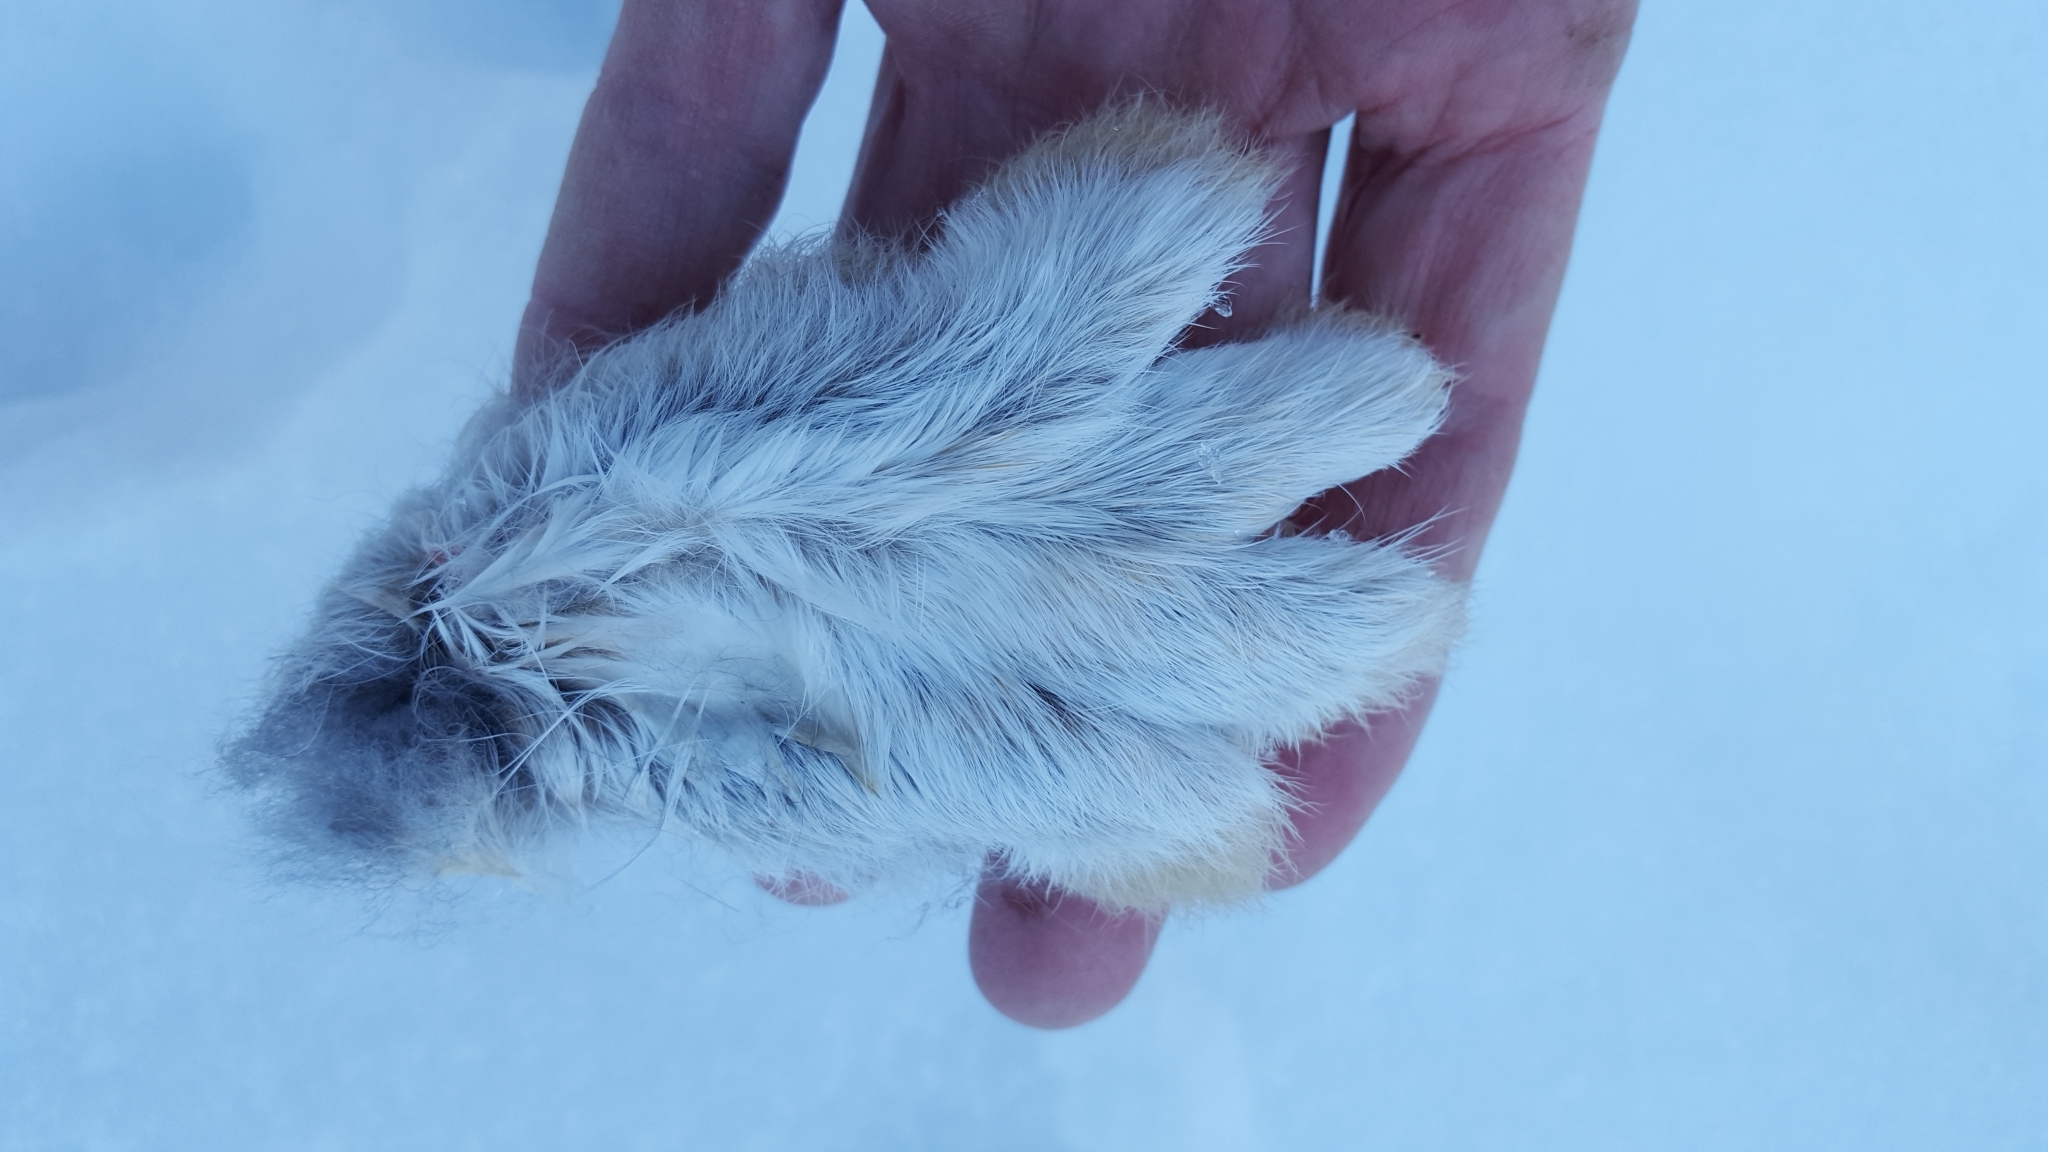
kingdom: Animalia
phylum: Chordata
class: Mammalia
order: Lagomorpha
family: Leporidae
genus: Lepus
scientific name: Lepus americanus
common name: Snowshoe hare
